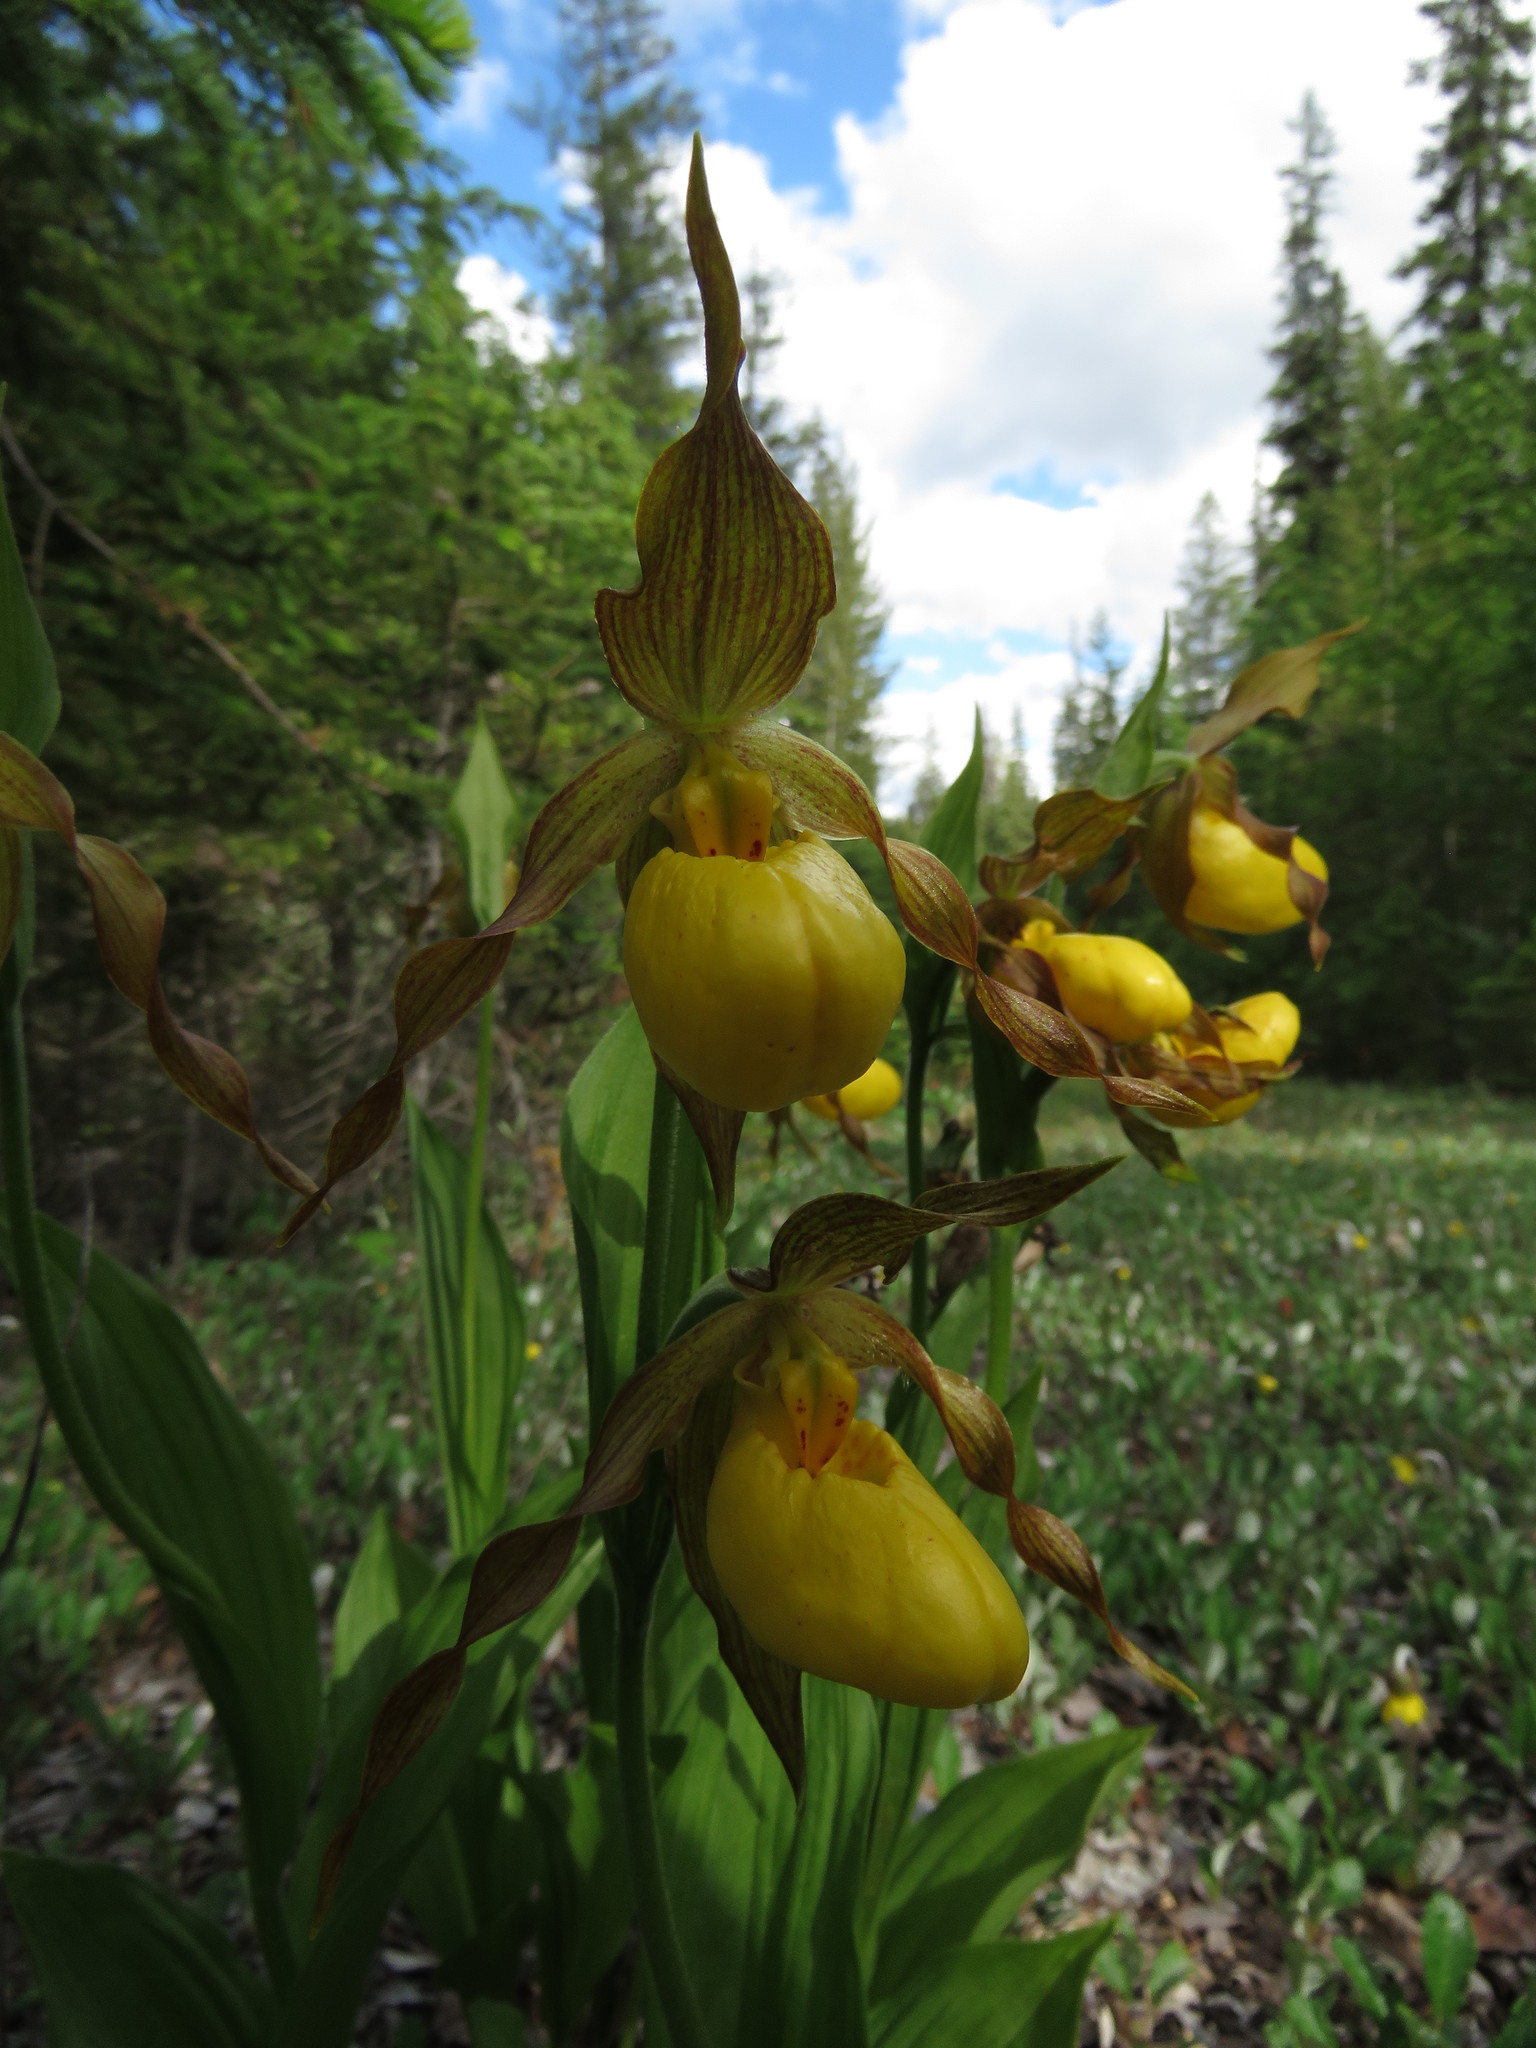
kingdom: Plantae
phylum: Tracheophyta
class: Liliopsida
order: Asparagales
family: Orchidaceae
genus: Cypripedium
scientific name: Cypripedium parviflorum
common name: American yellow lady's-slipper
